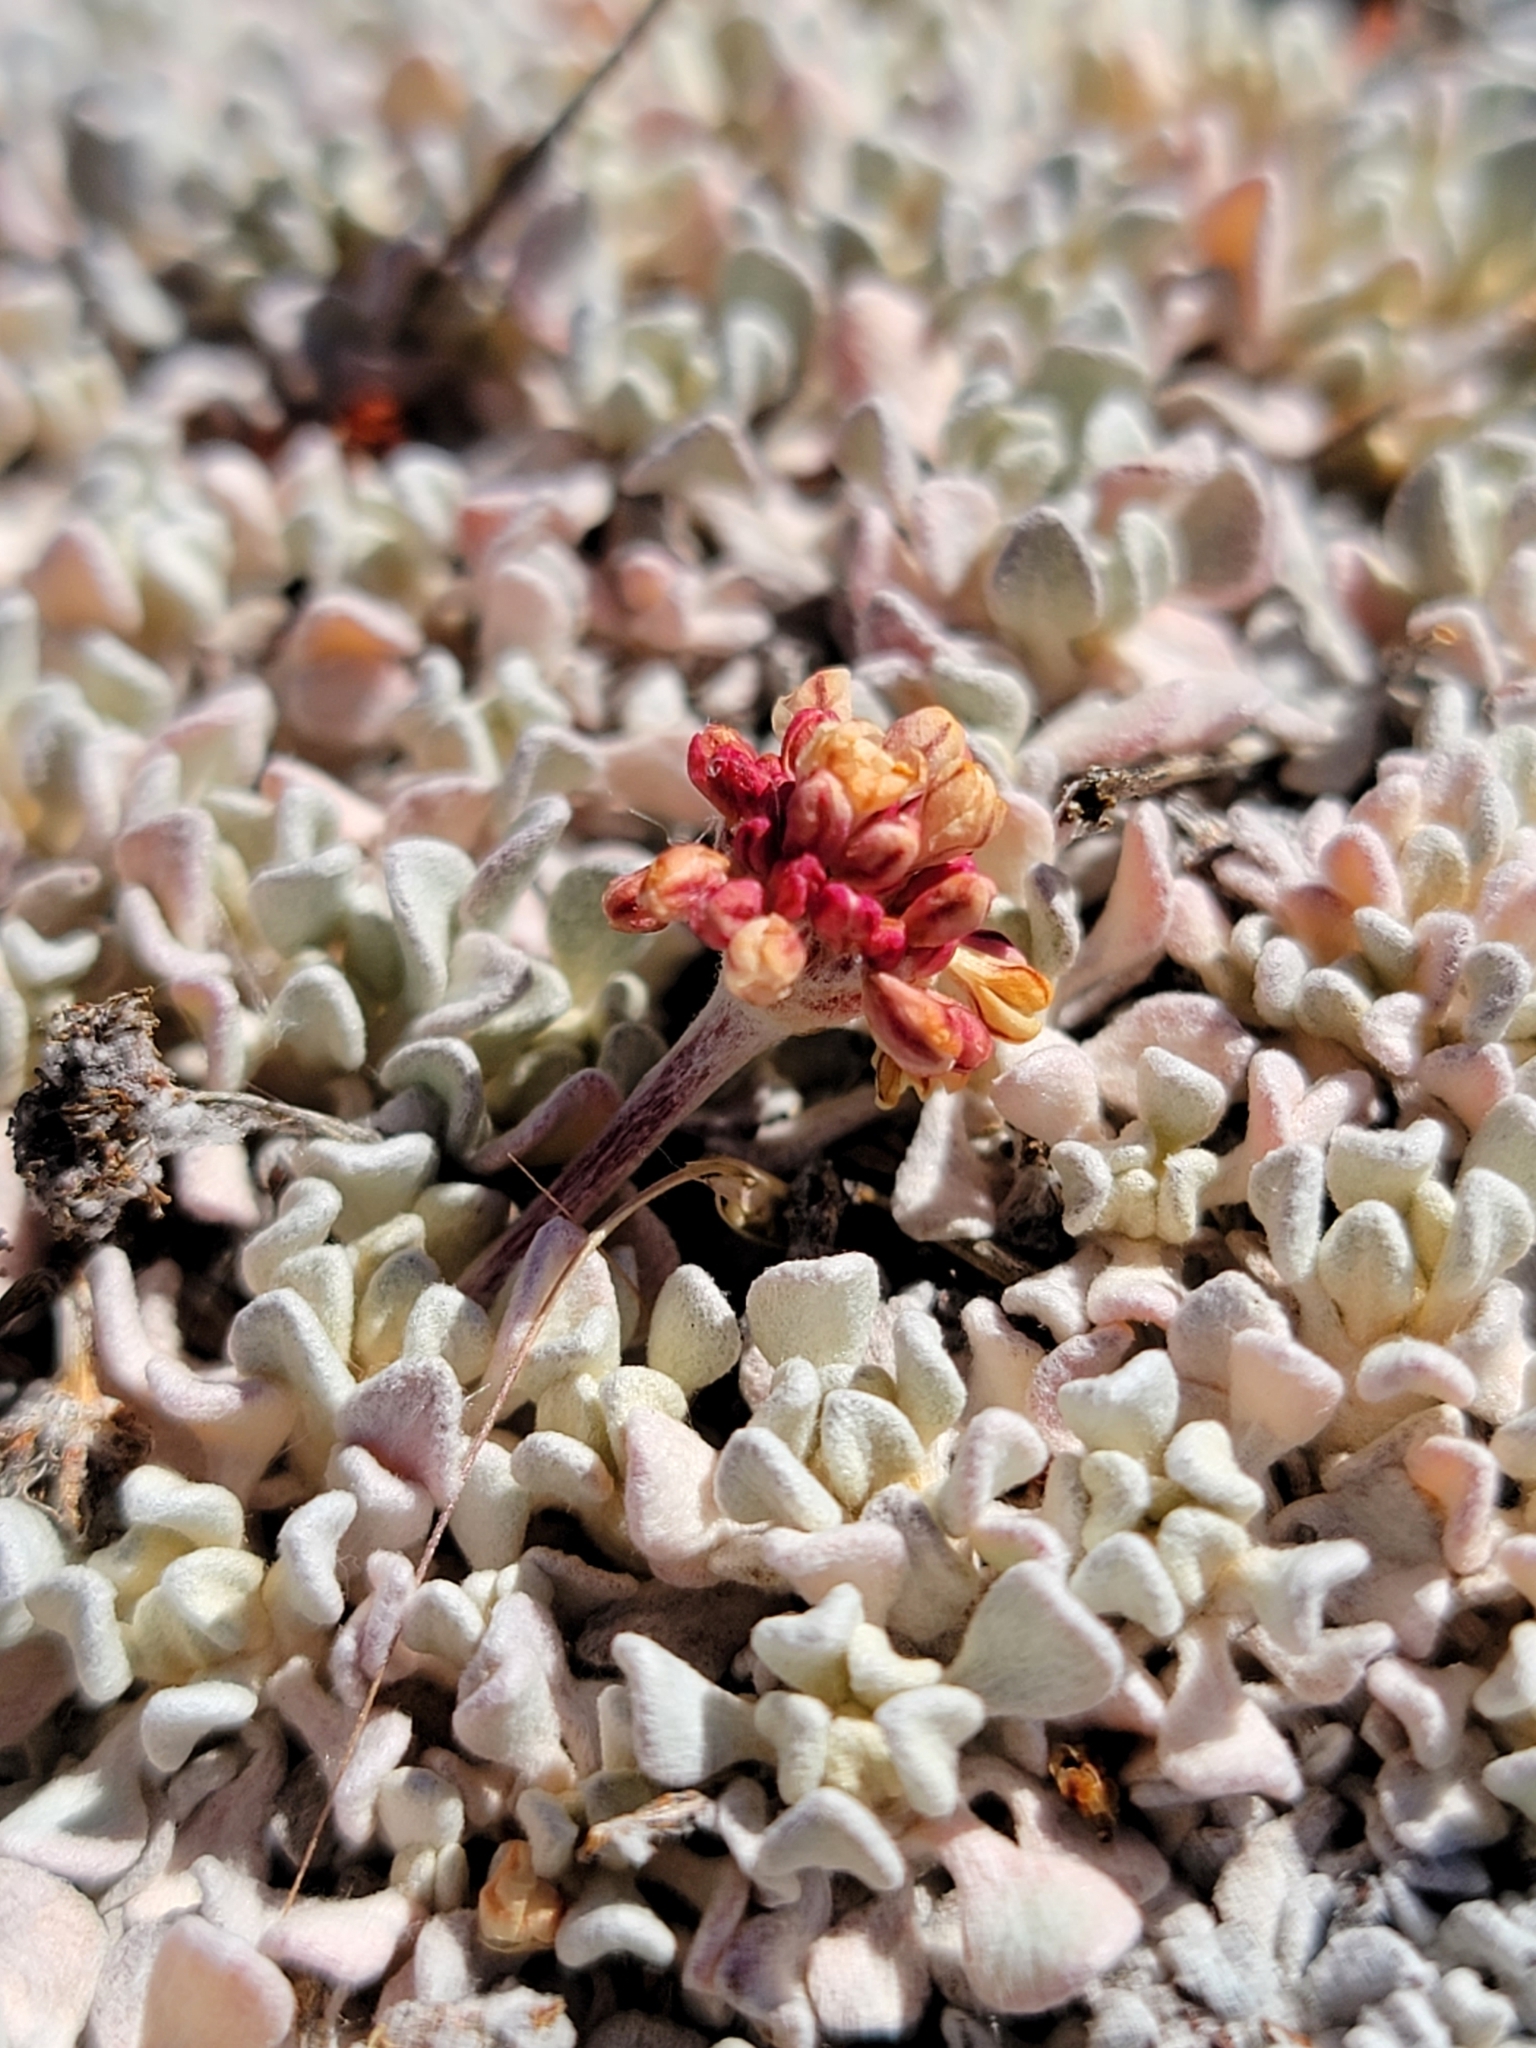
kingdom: Plantae
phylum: Tracheophyta
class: Magnoliopsida
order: Caryophyllales
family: Polygonaceae
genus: Eriogonum
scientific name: Eriogonum ovalifolium
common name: Cushion buckwheat
